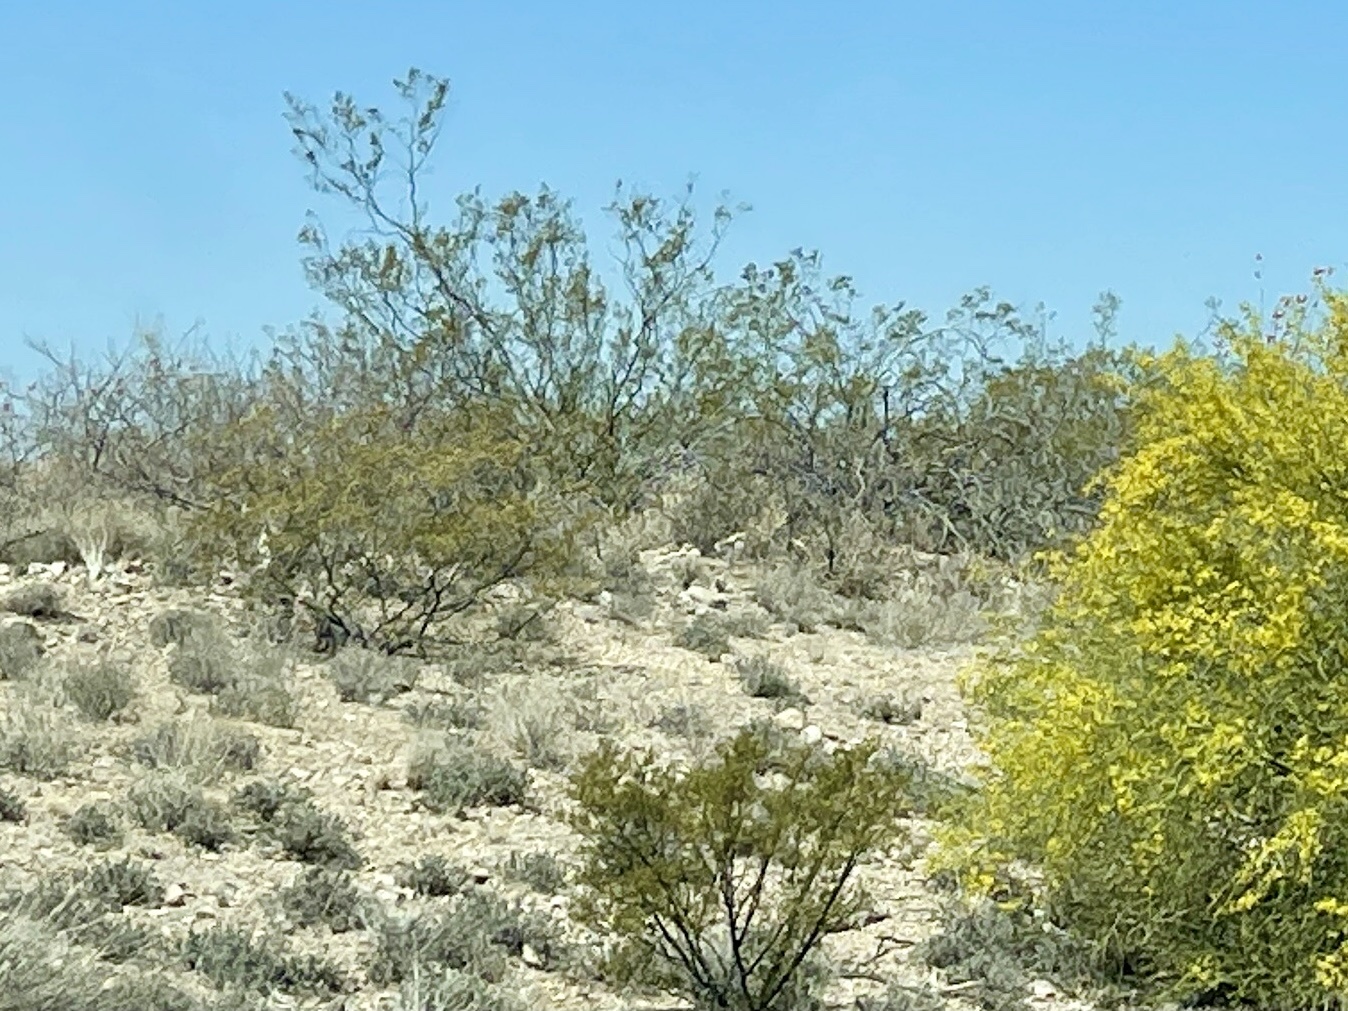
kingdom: Plantae
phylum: Tracheophyta
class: Magnoliopsida
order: Zygophyllales
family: Zygophyllaceae
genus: Larrea
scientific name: Larrea tridentata
